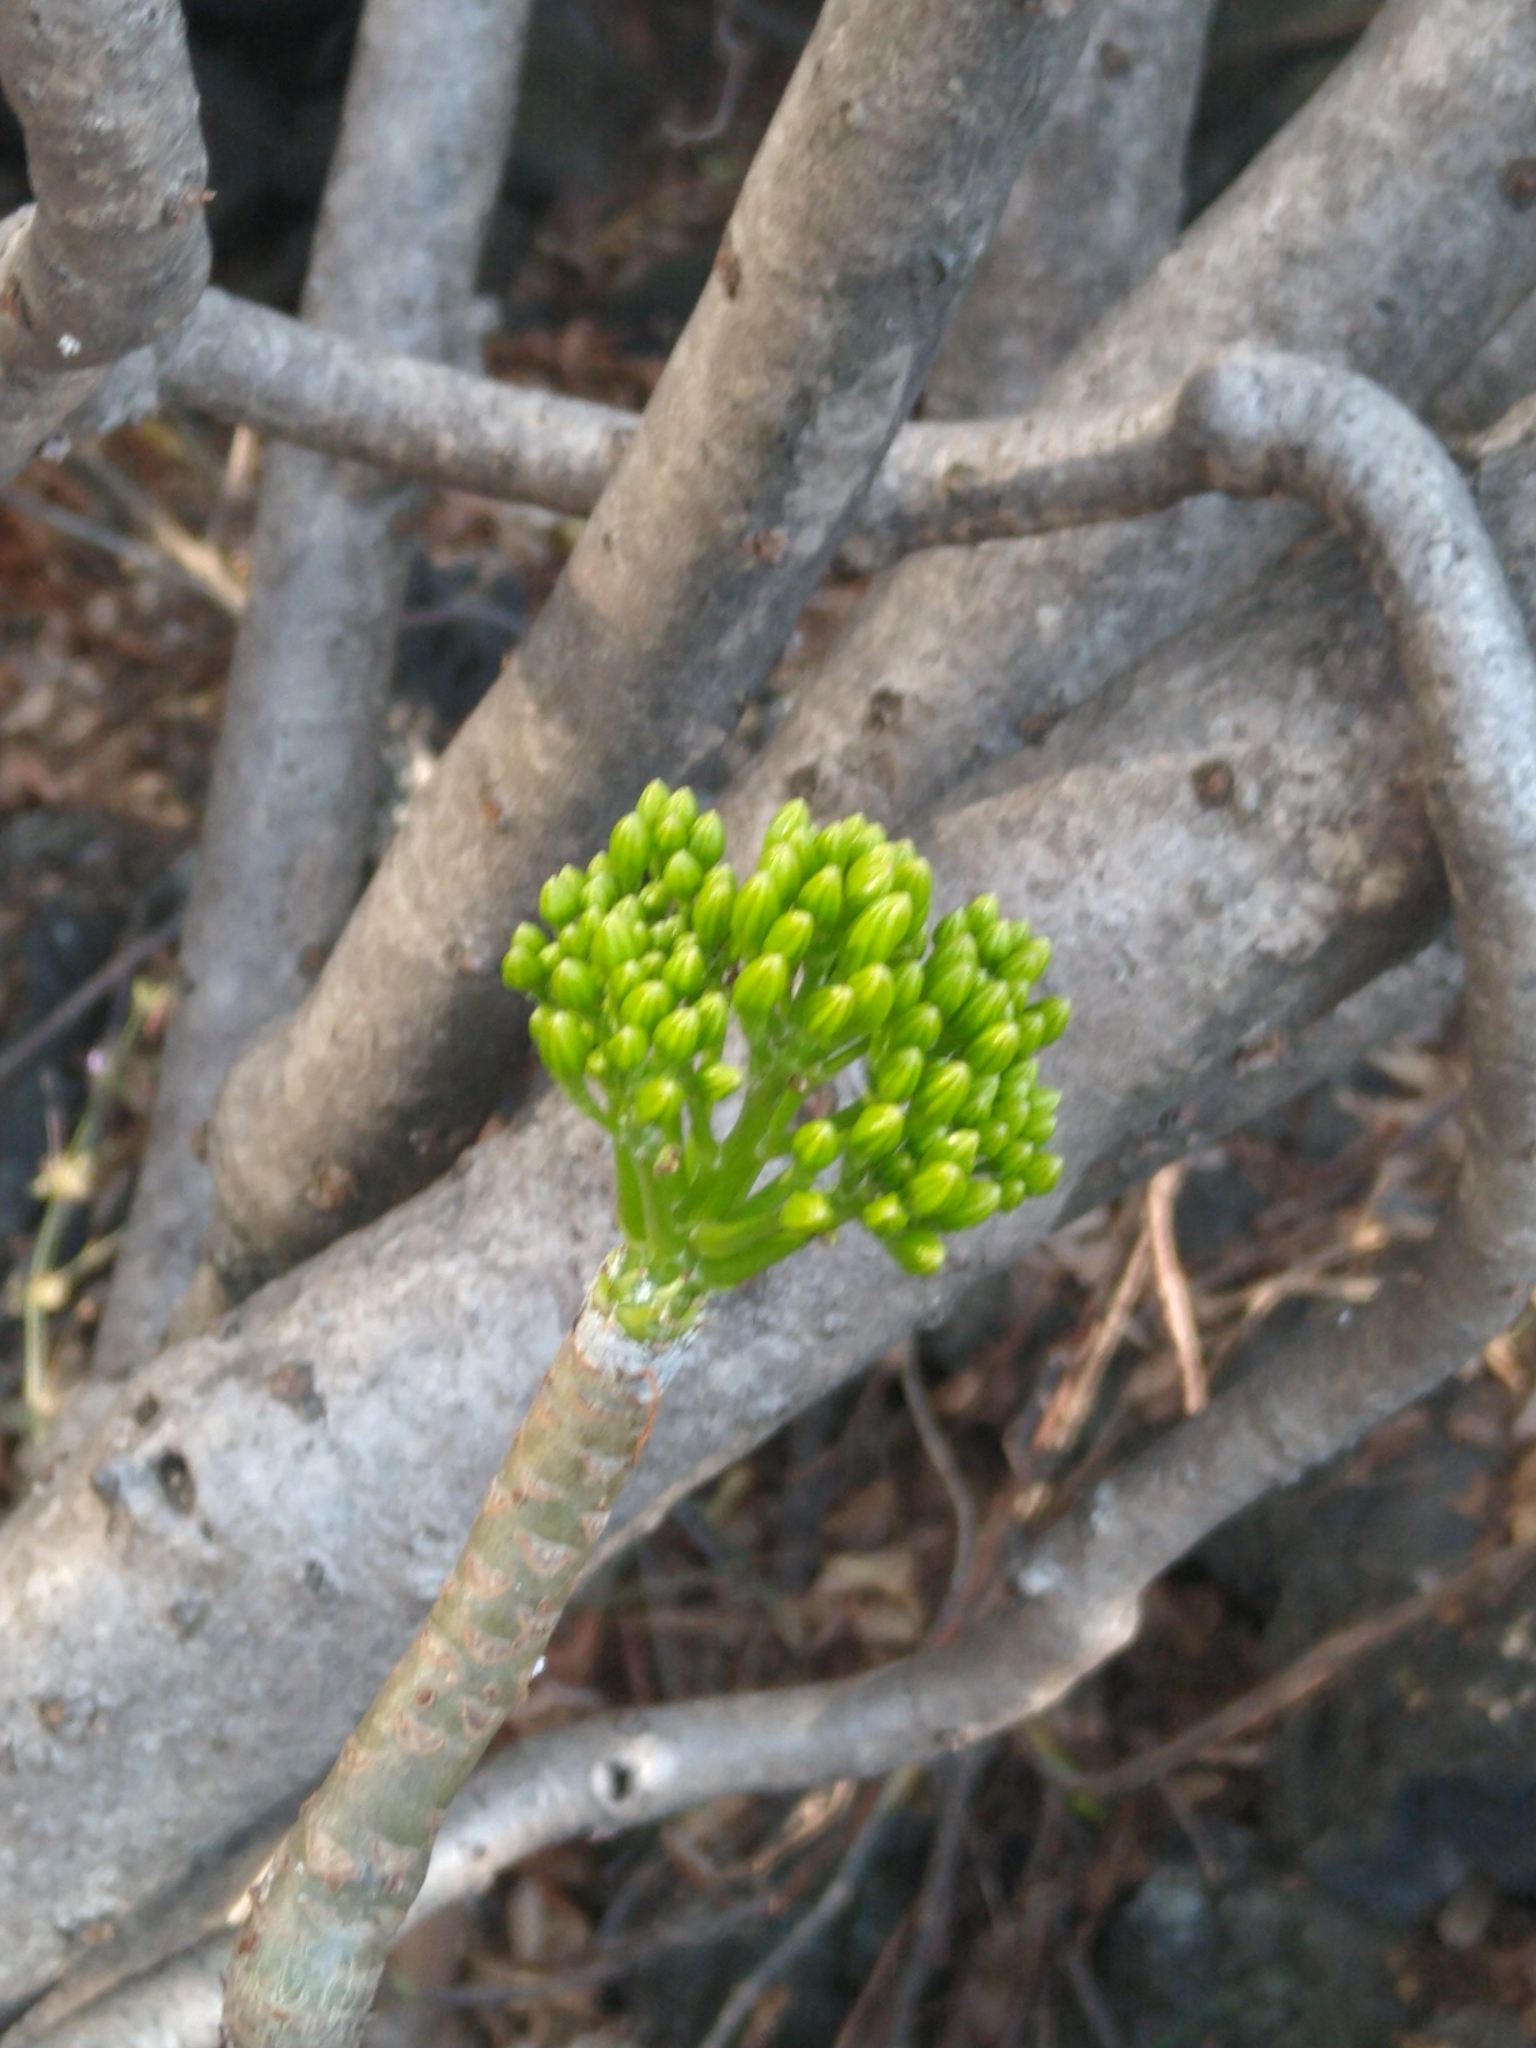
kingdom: Plantae
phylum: Tracheophyta
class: Magnoliopsida
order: Asterales
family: Asteraceae
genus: Pittocaulon
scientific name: Pittocaulon praecox
